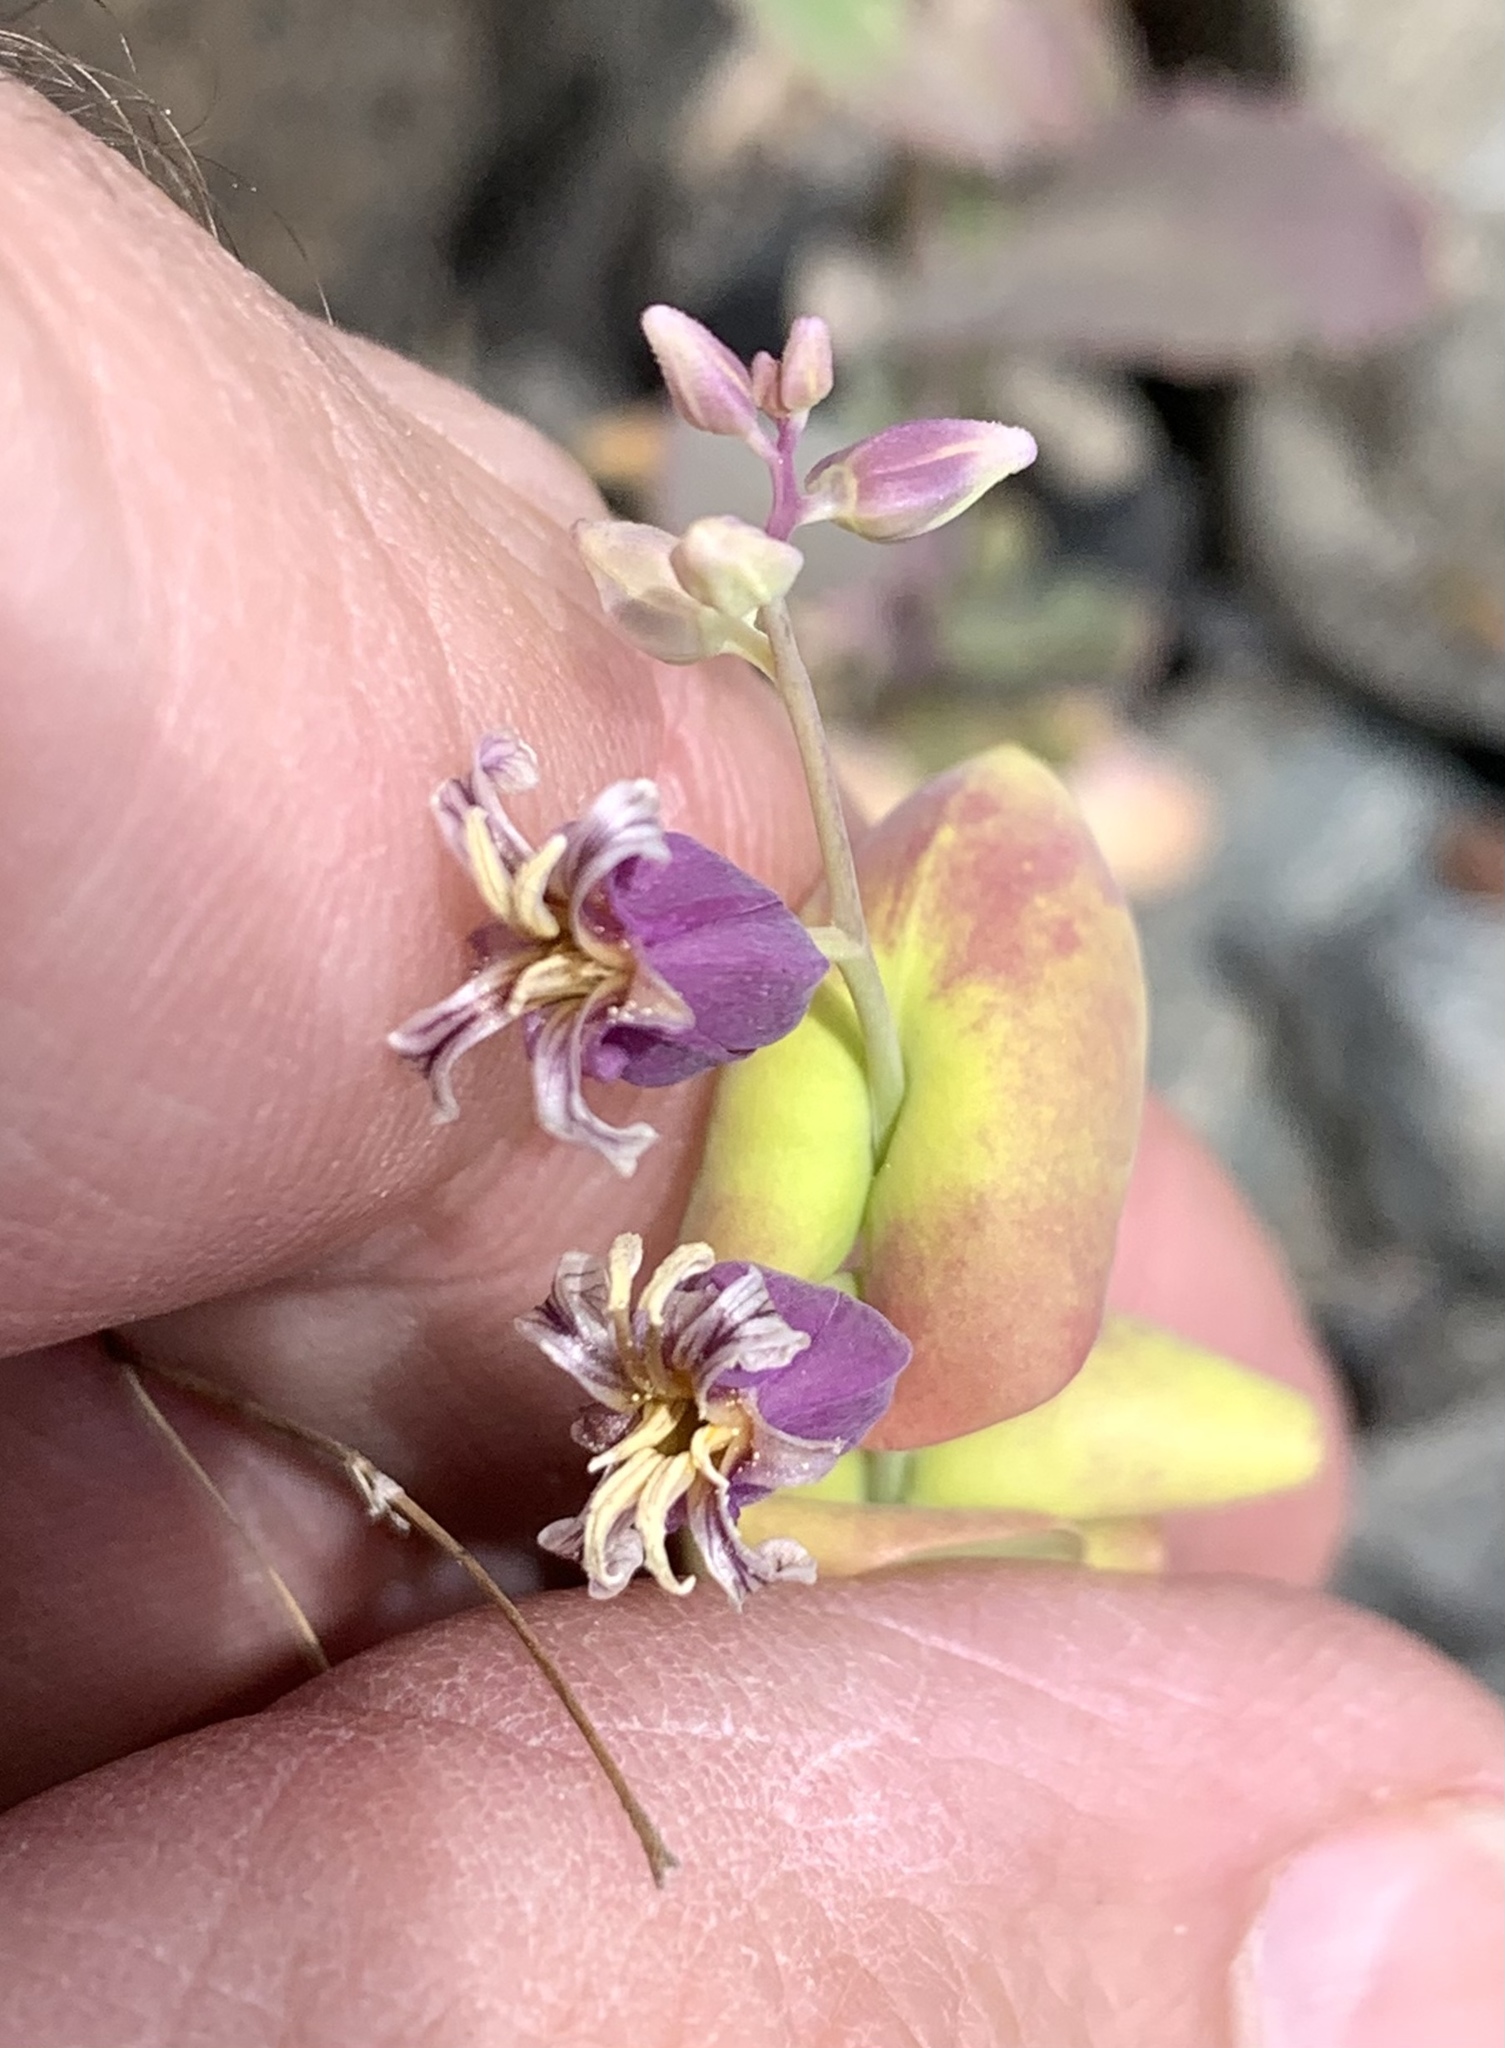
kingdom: Plantae
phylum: Tracheophyta
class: Magnoliopsida
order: Brassicales
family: Brassicaceae
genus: Streptanthus
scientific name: Streptanthus tortuosus
